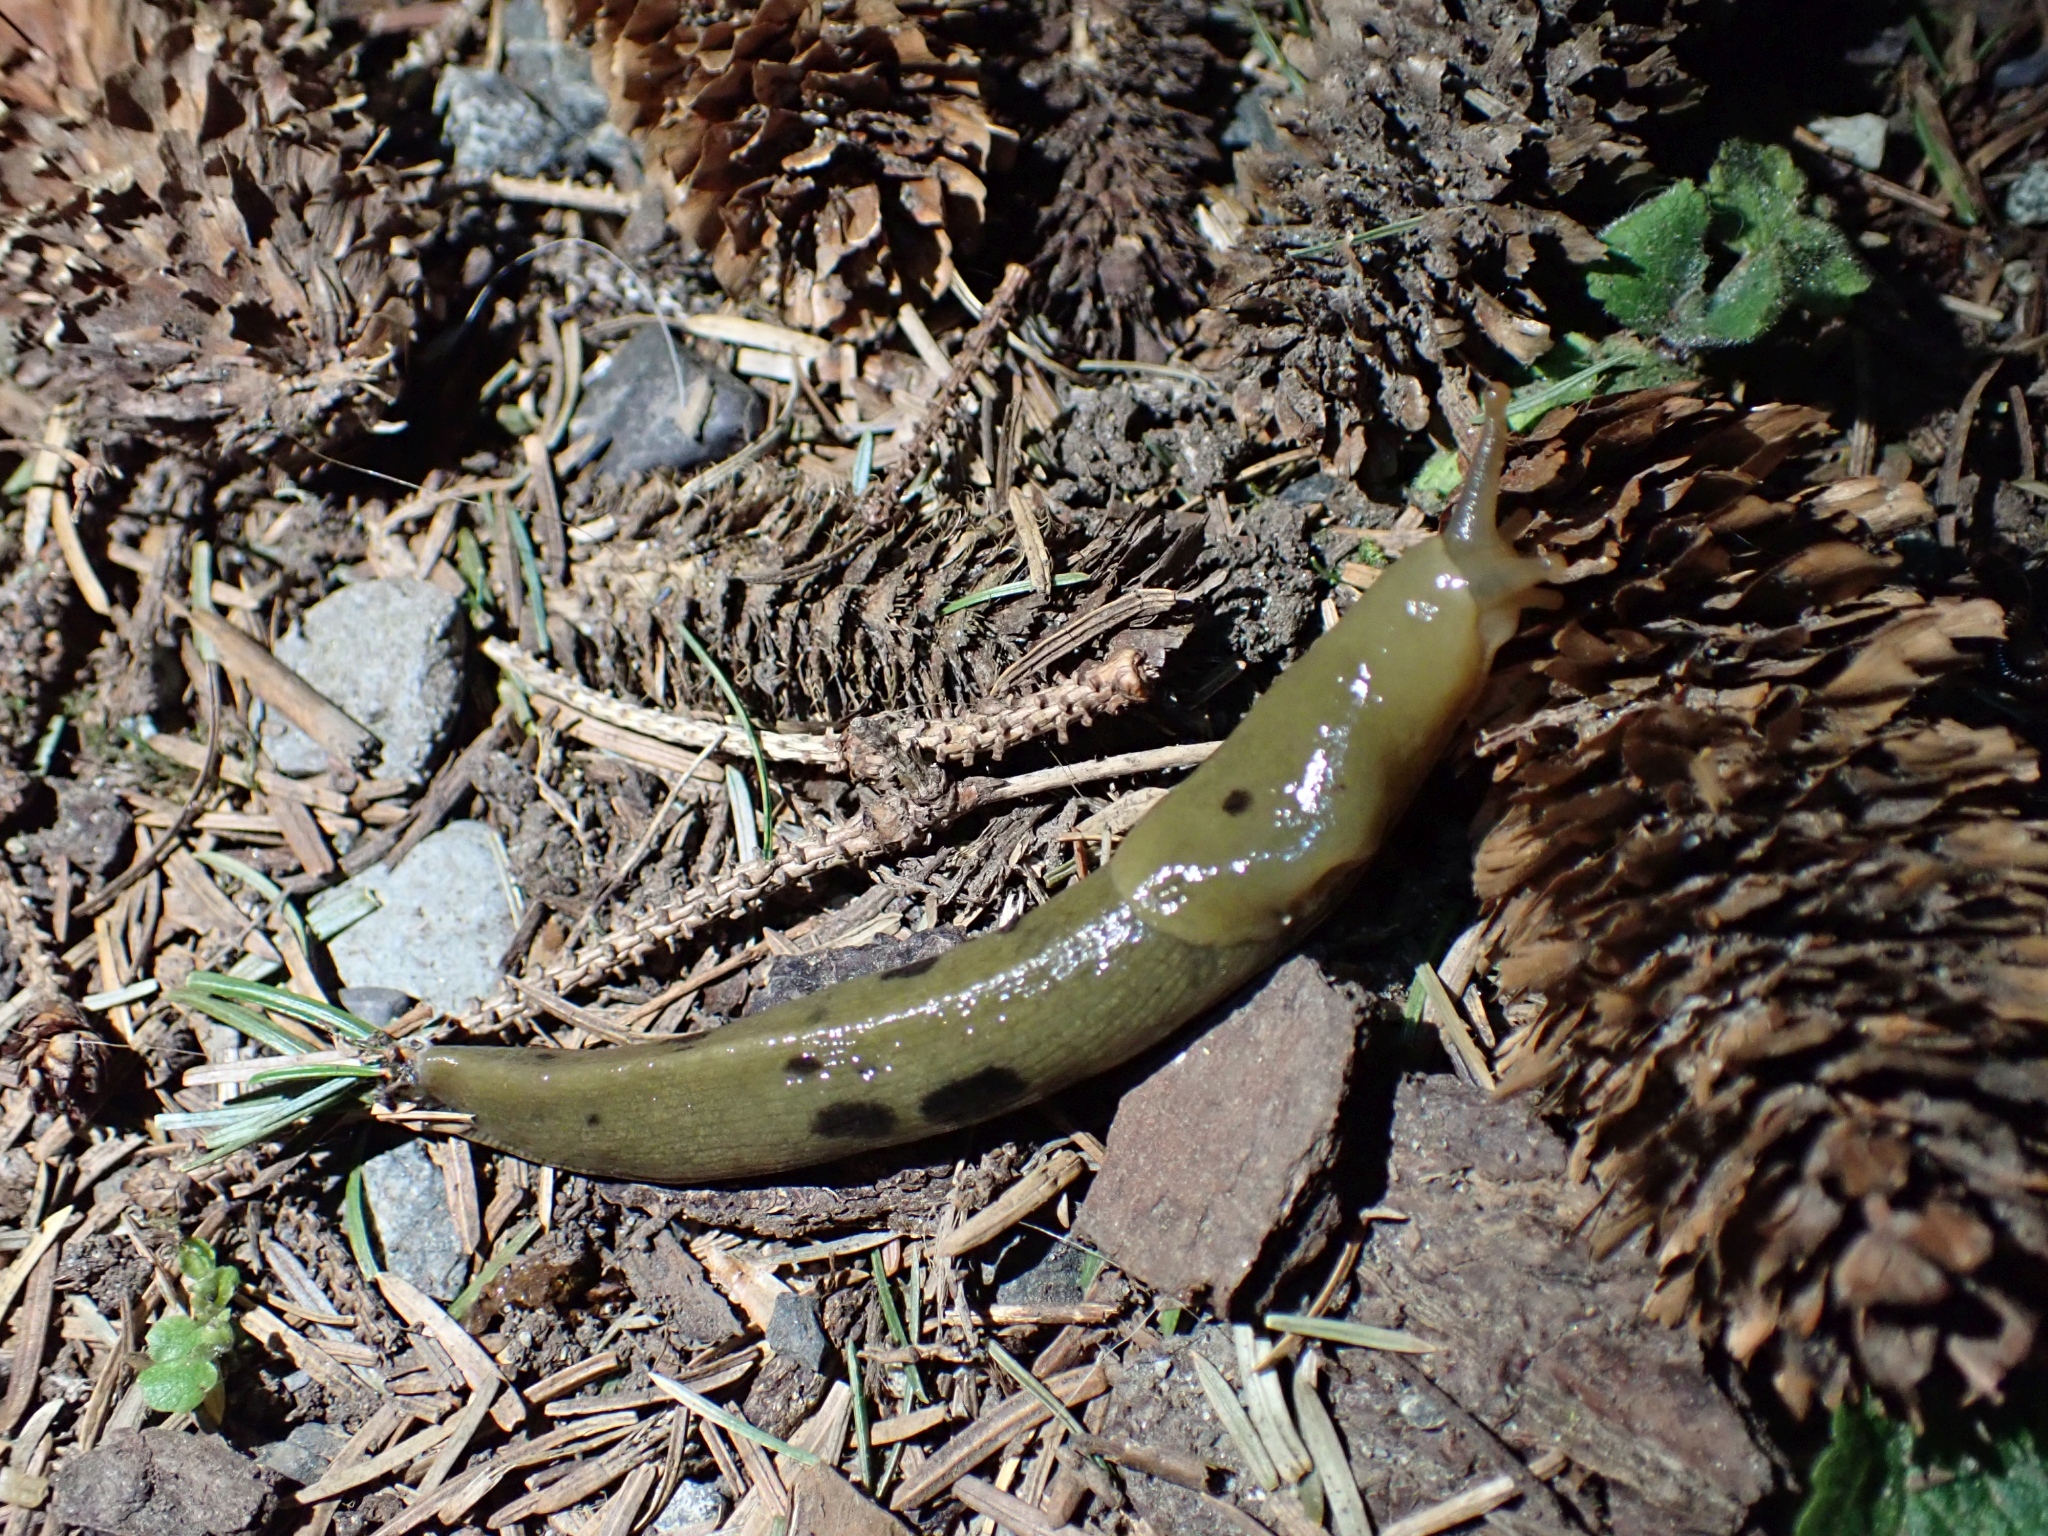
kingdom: Animalia
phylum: Mollusca
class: Gastropoda
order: Stylommatophora
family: Ariolimacidae
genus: Ariolimax
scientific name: Ariolimax columbianus
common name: Pacific banana slug
